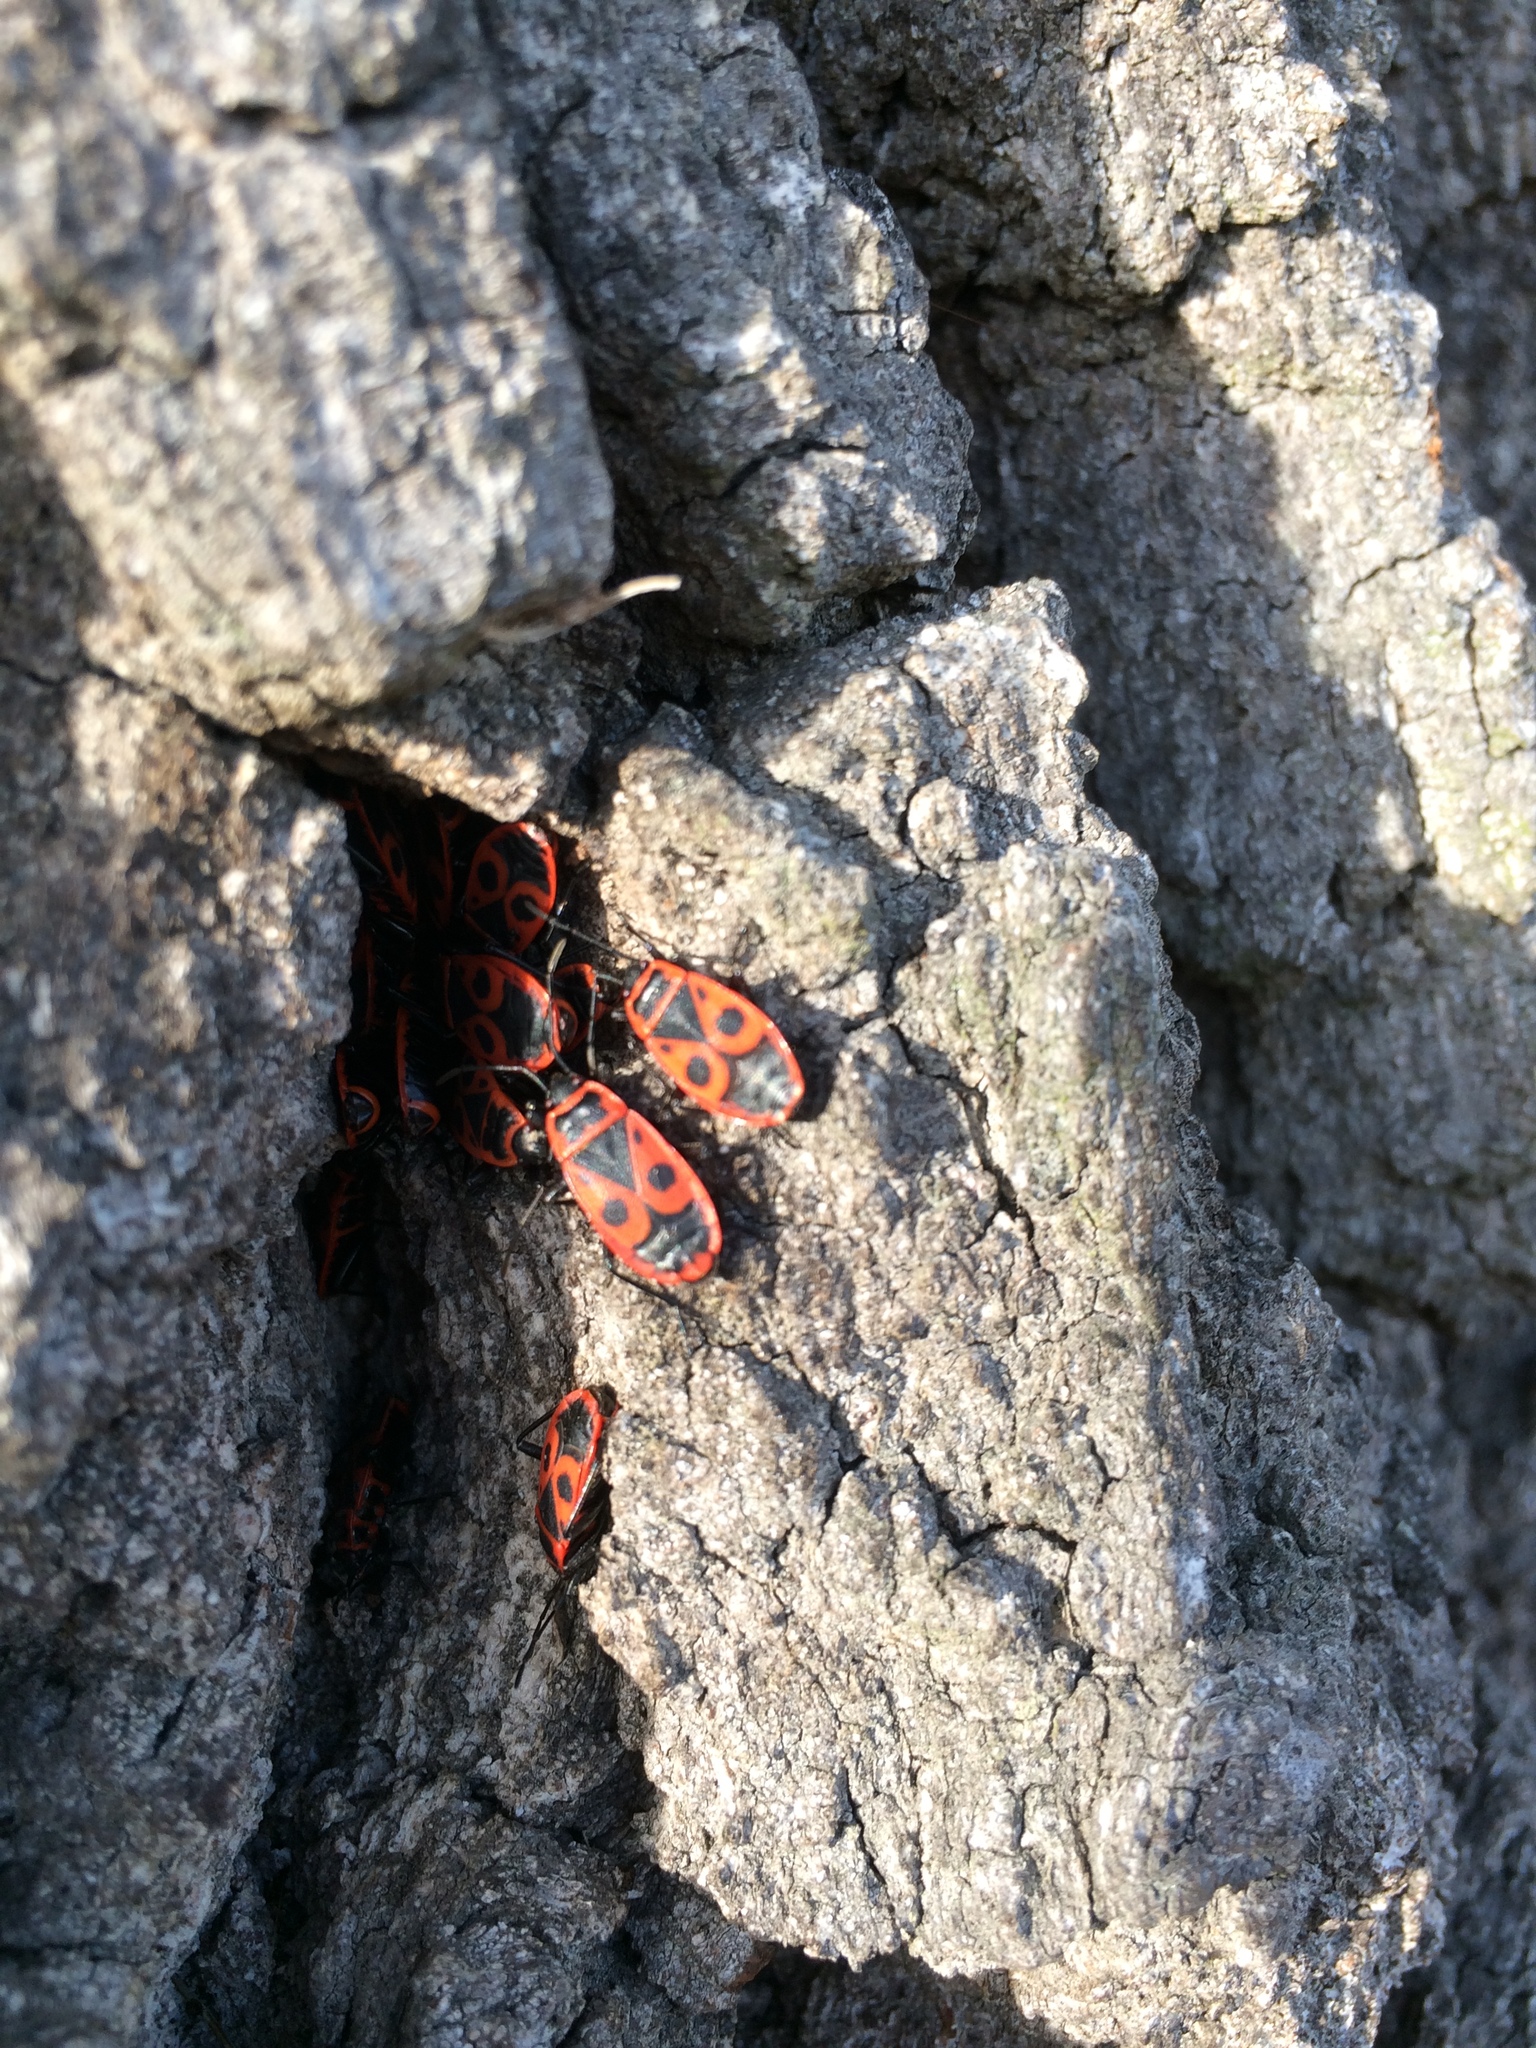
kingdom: Animalia
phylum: Arthropoda
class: Insecta
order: Hemiptera
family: Pyrrhocoridae
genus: Pyrrhocoris
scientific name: Pyrrhocoris apterus
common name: Firebug
